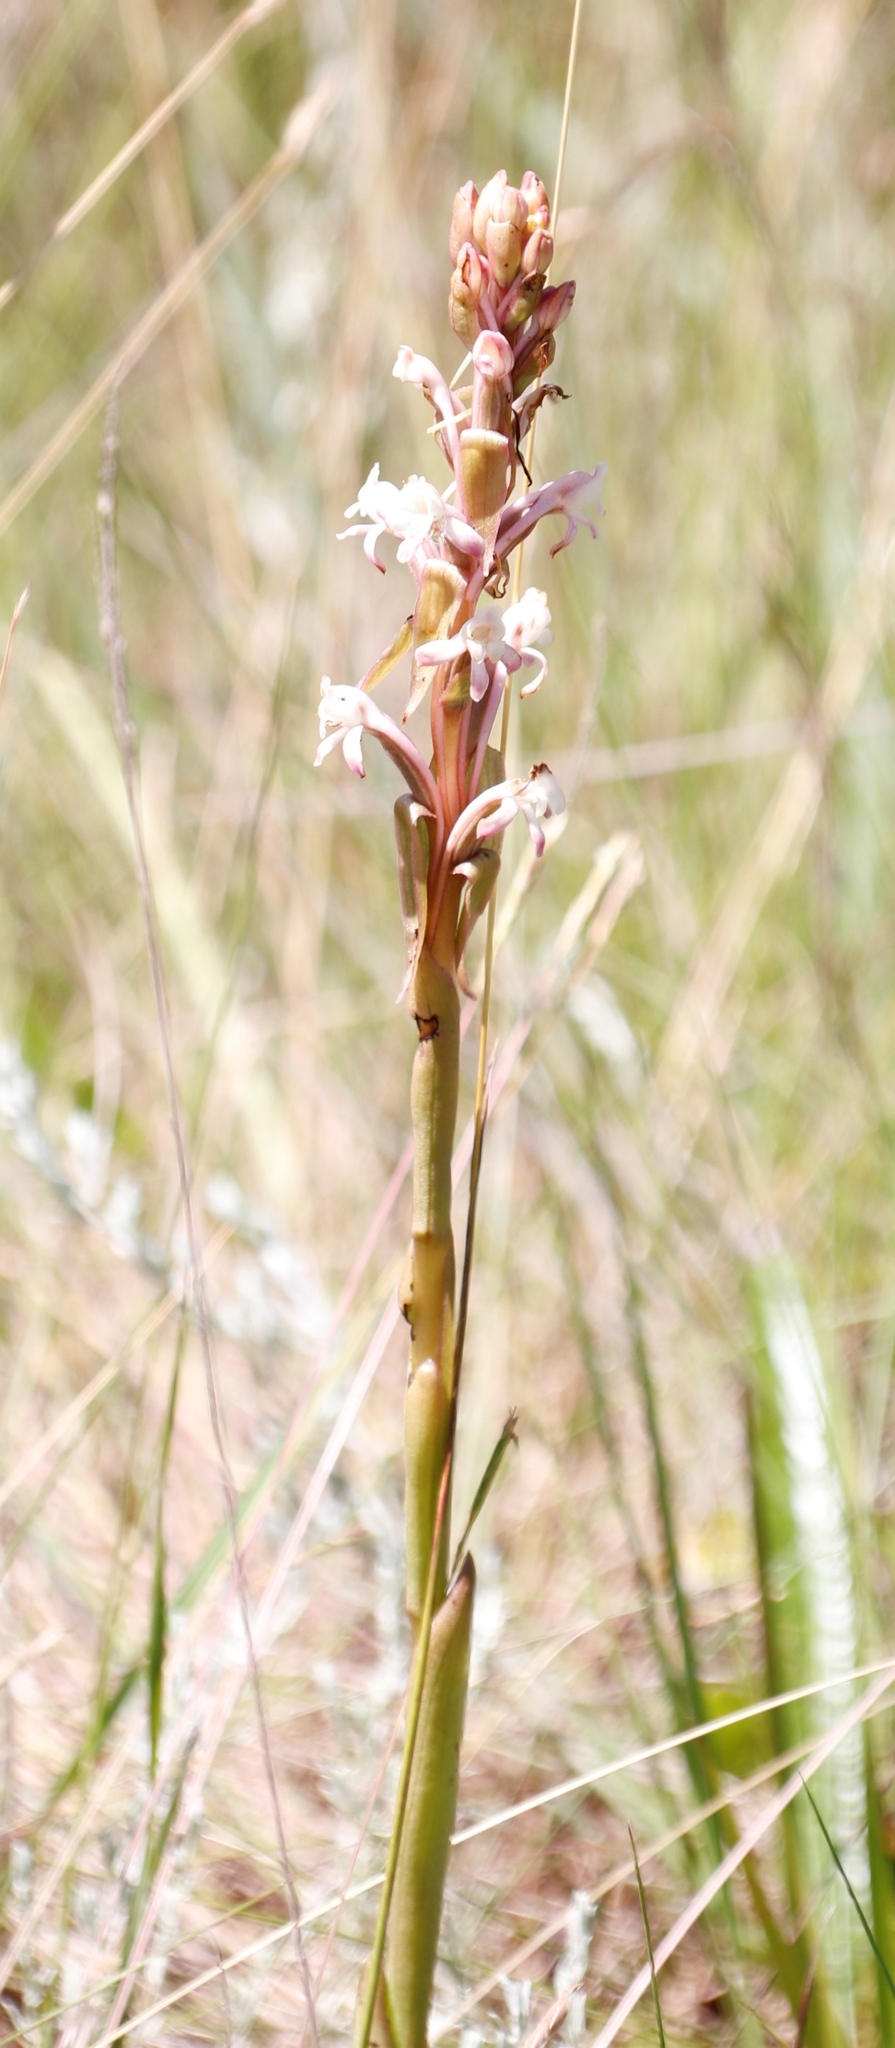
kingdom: Plantae
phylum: Tracheophyta
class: Liliopsida
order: Asparagales
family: Orchidaceae
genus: Satyrium
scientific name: Satyrium longicauda
